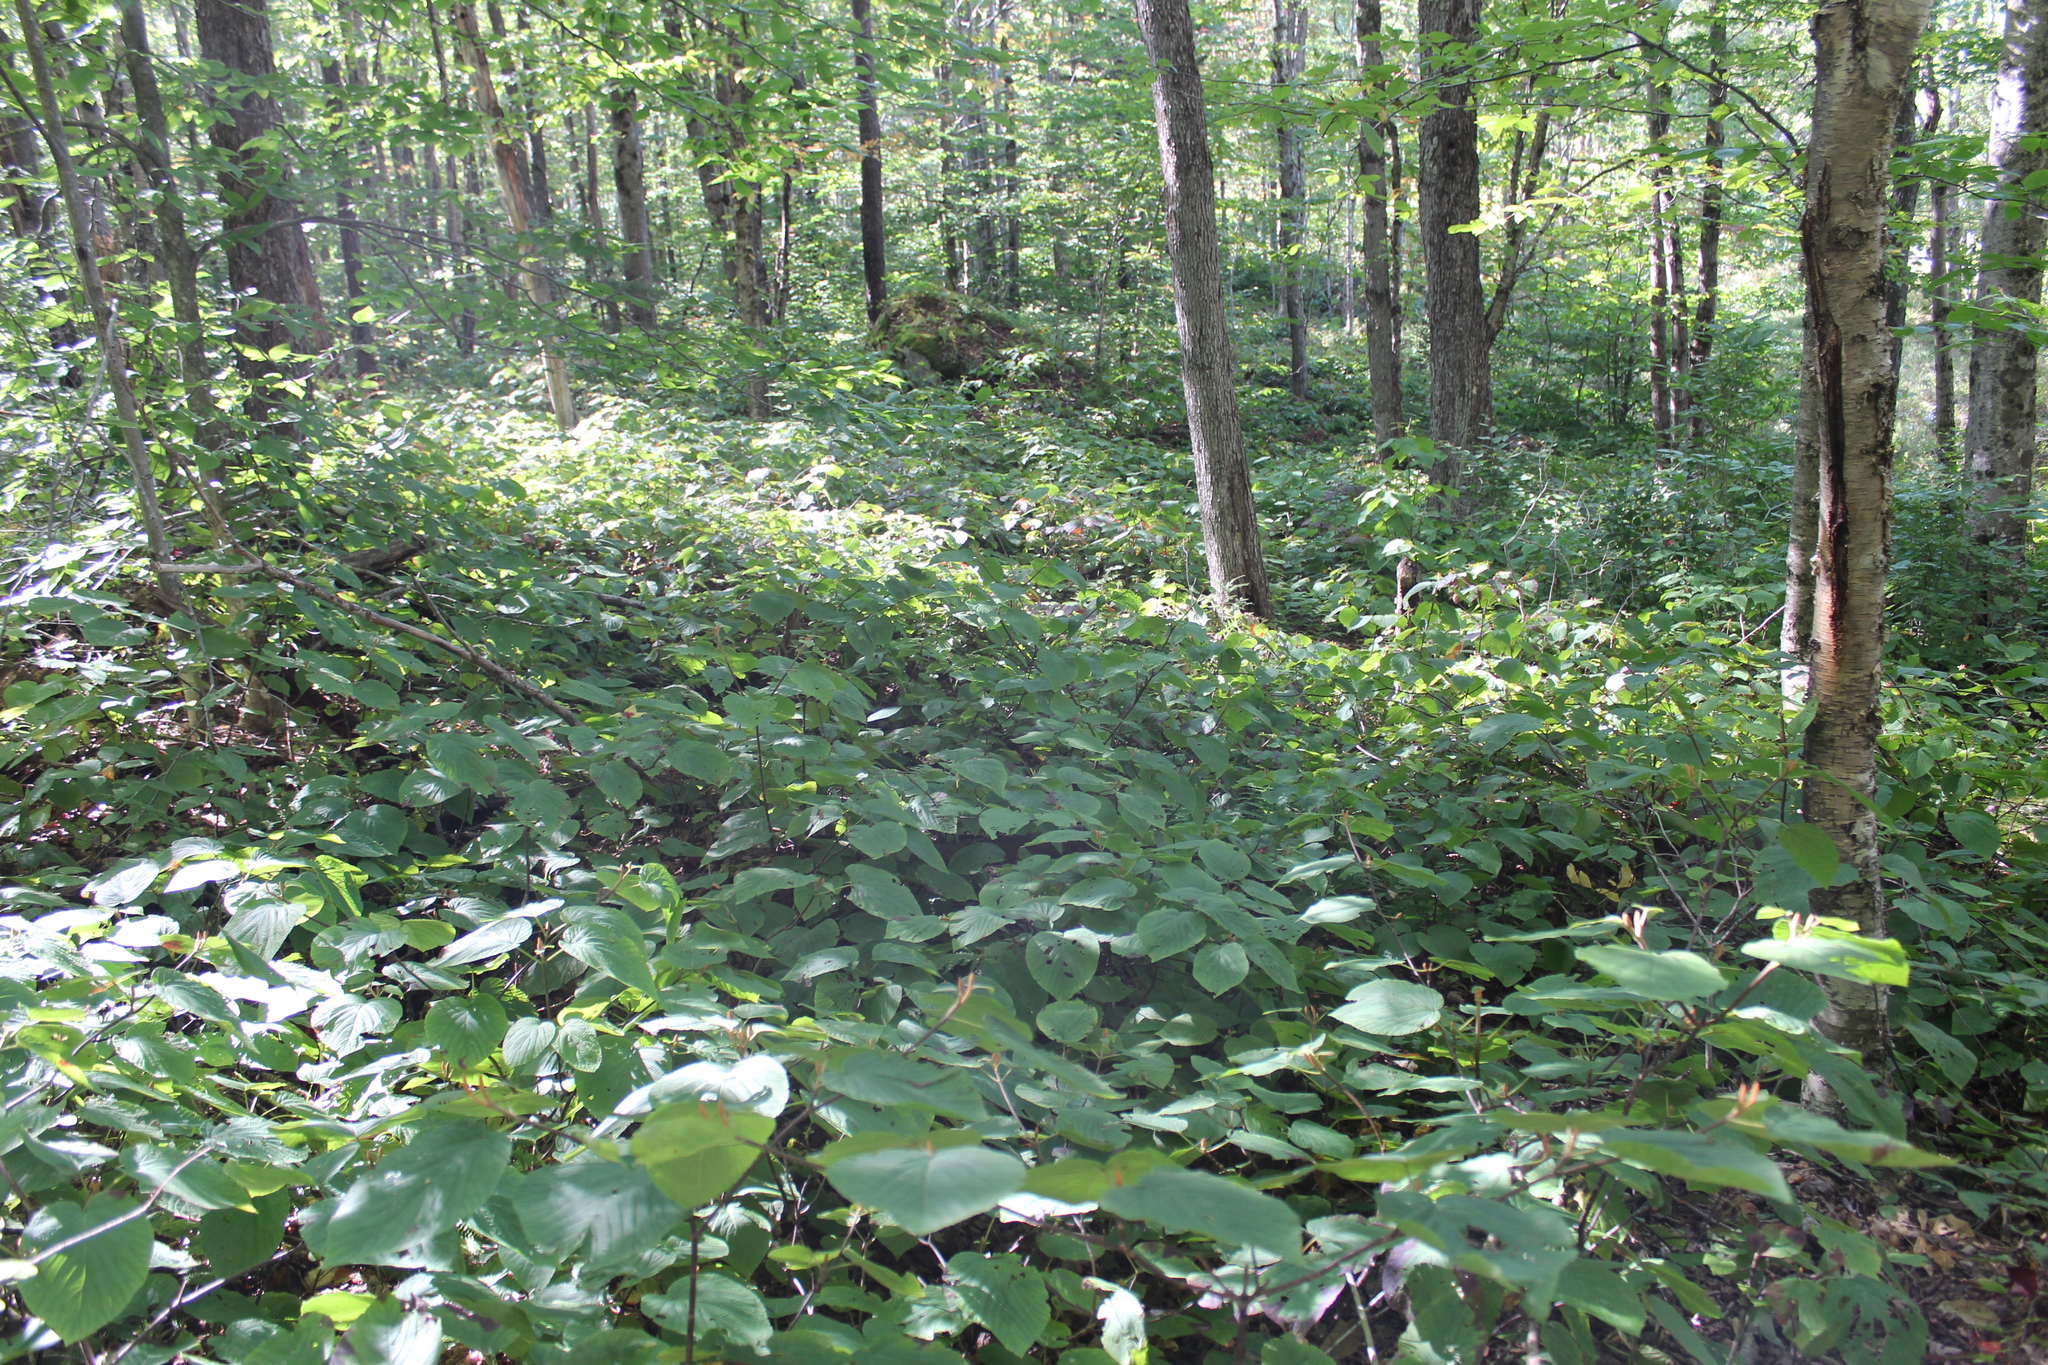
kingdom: Plantae
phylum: Tracheophyta
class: Magnoliopsida
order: Dipsacales
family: Viburnaceae
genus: Viburnum
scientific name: Viburnum lantanoides
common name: Hobblebush
